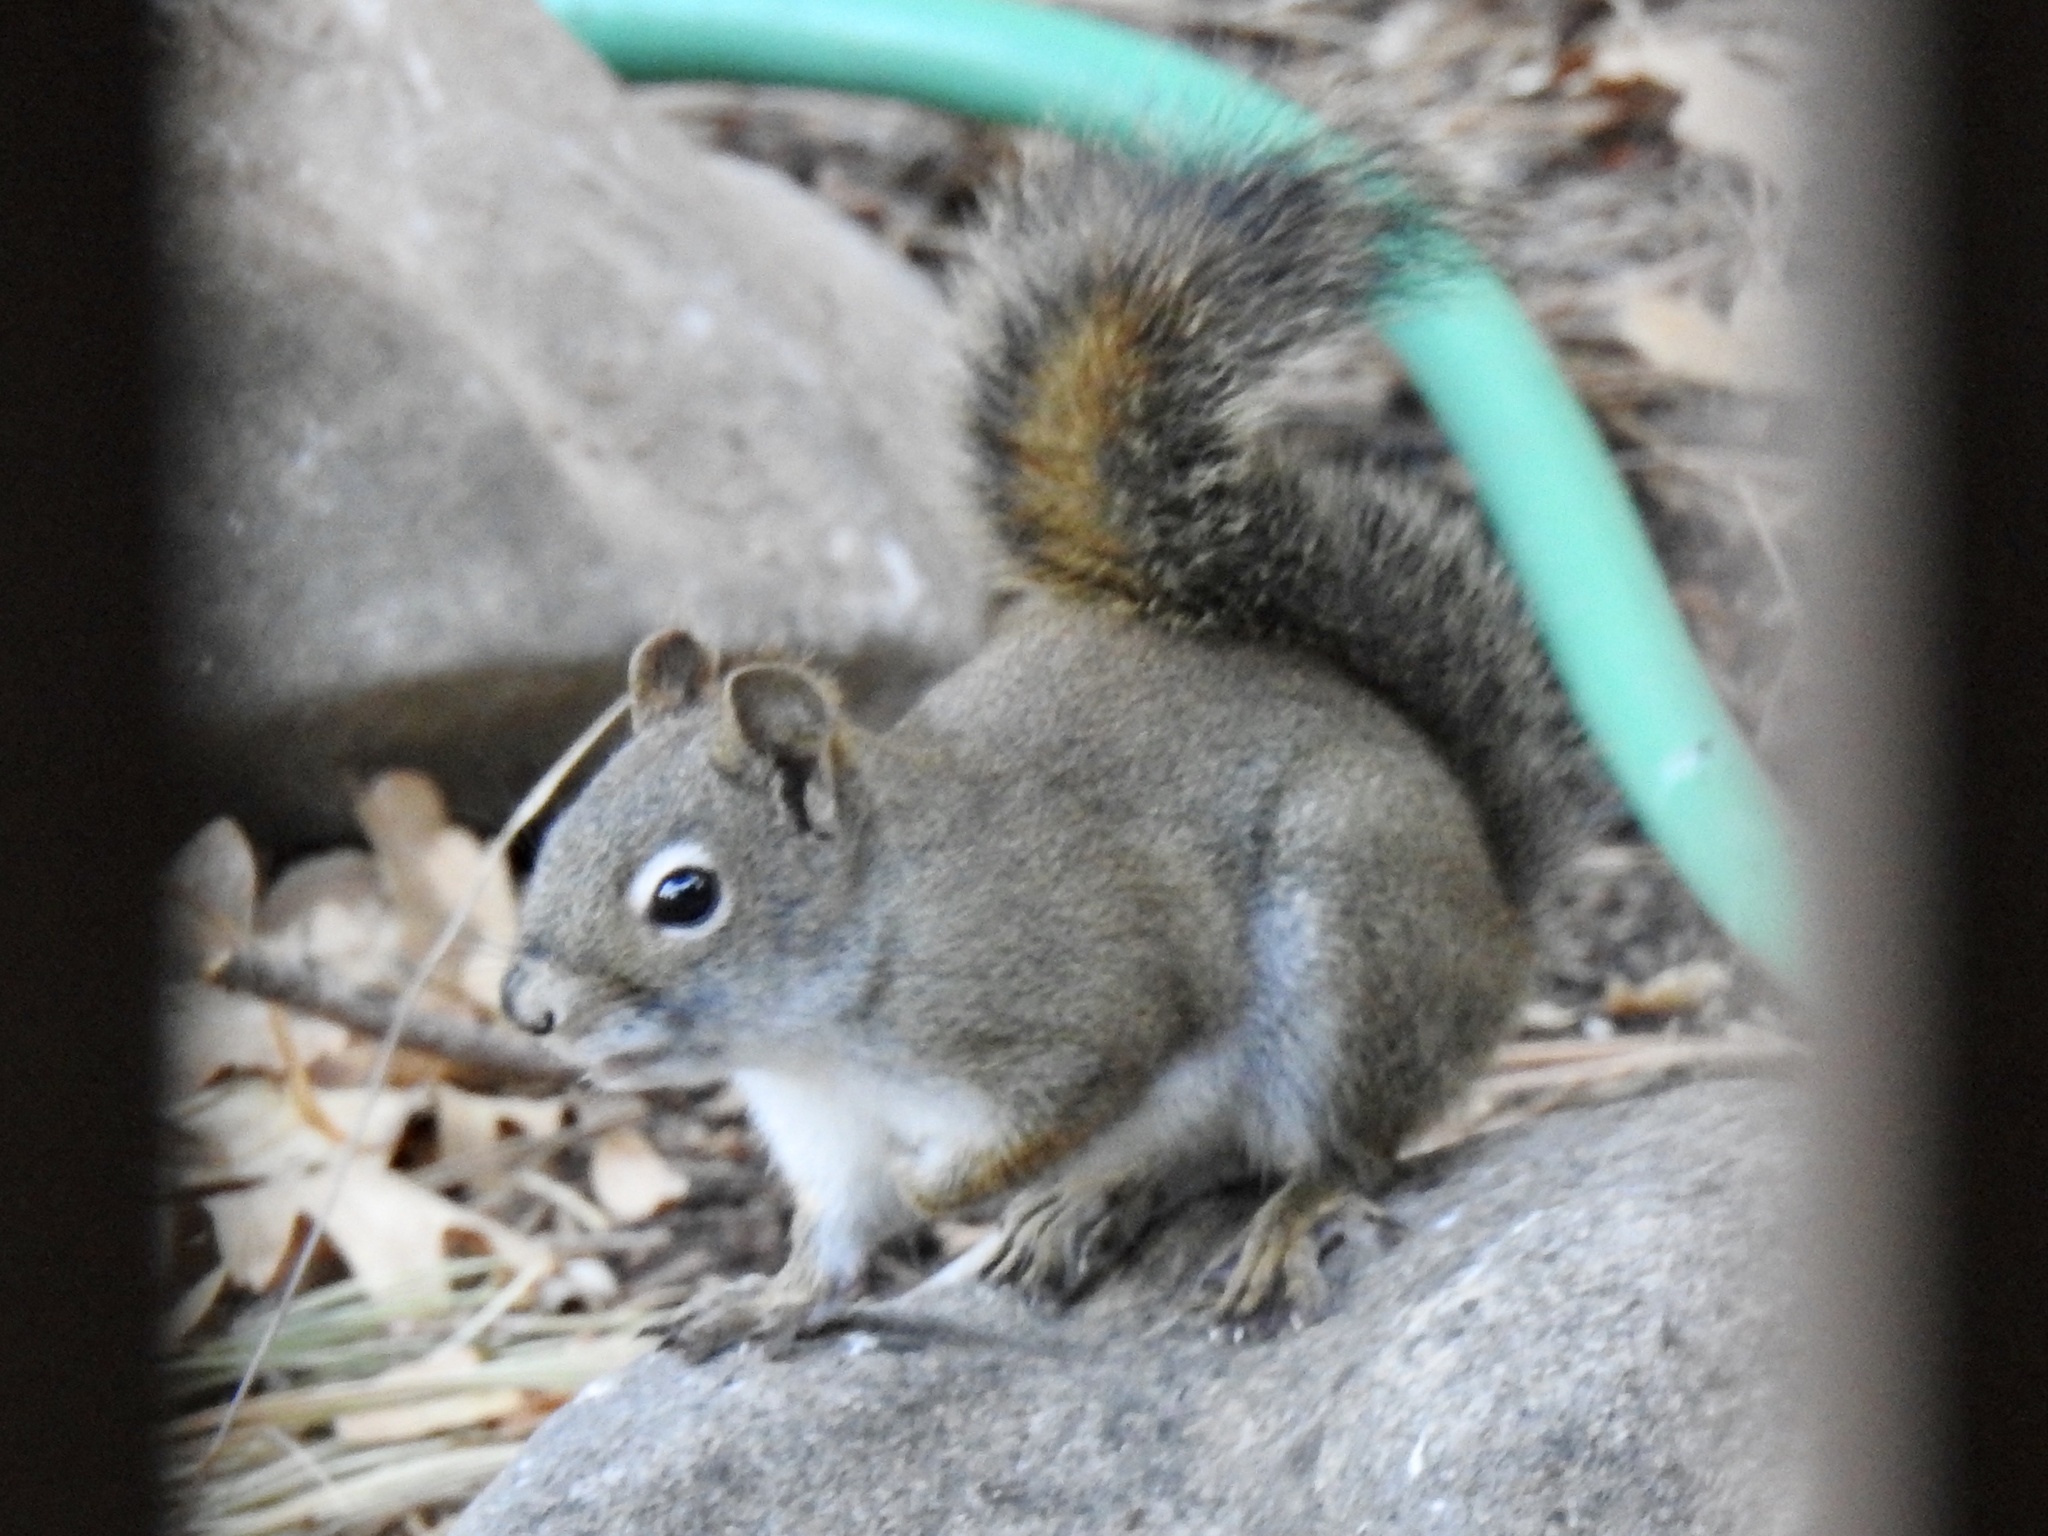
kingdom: Animalia
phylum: Chordata
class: Mammalia
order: Rodentia
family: Sciuridae
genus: Tamiasciurus
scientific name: Tamiasciurus hudsonicus
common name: Red squirrel
